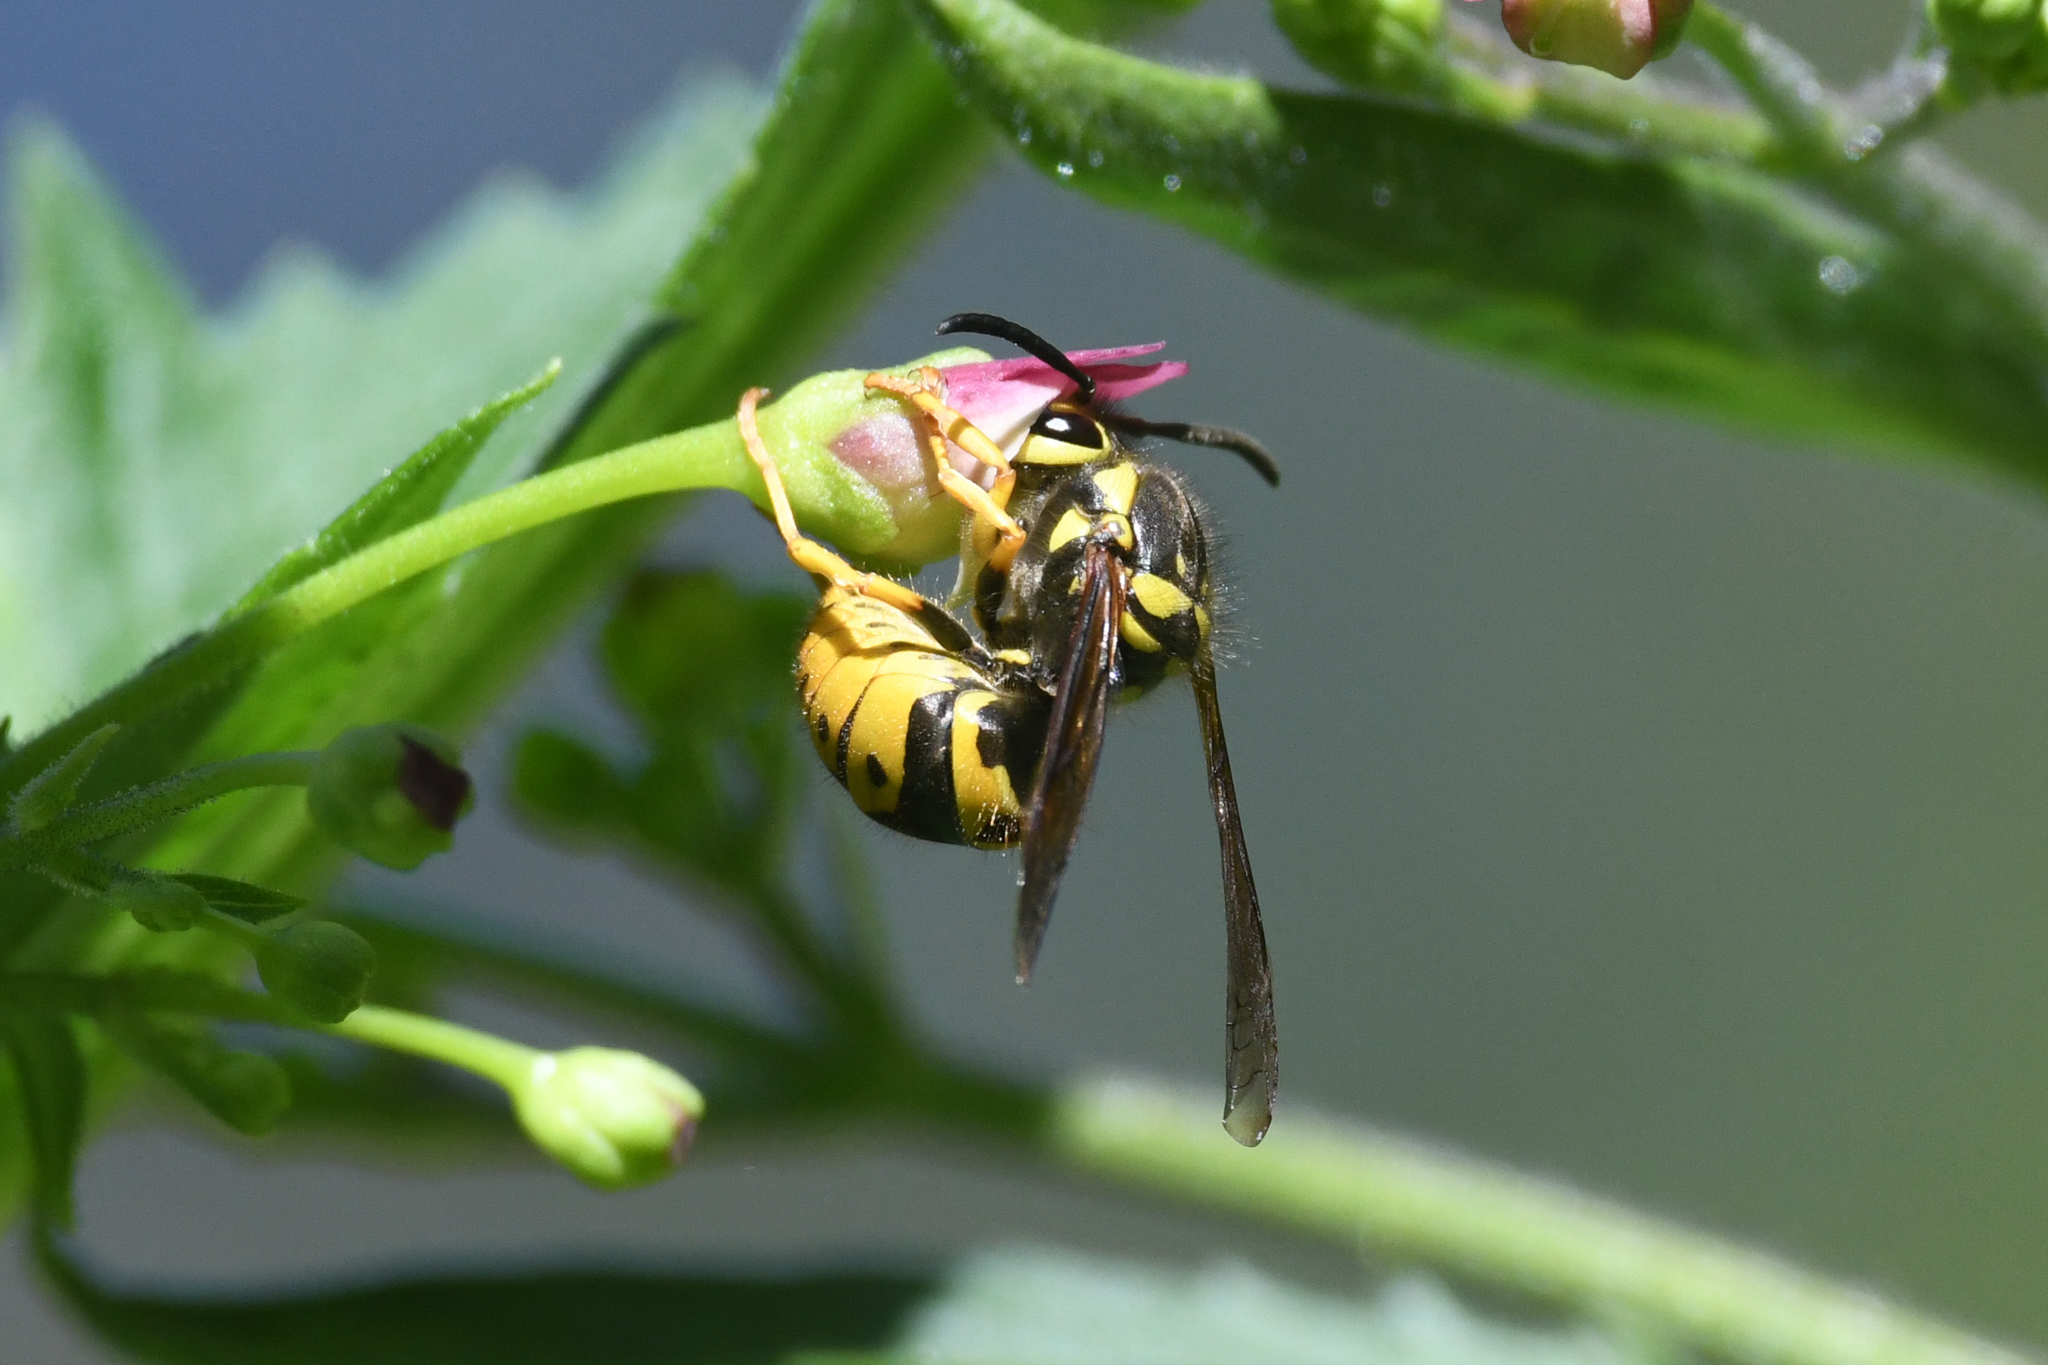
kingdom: Animalia
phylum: Arthropoda
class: Insecta
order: Hymenoptera
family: Vespidae
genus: Vespula
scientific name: Vespula pensylvanica
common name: Western yellowjacket
